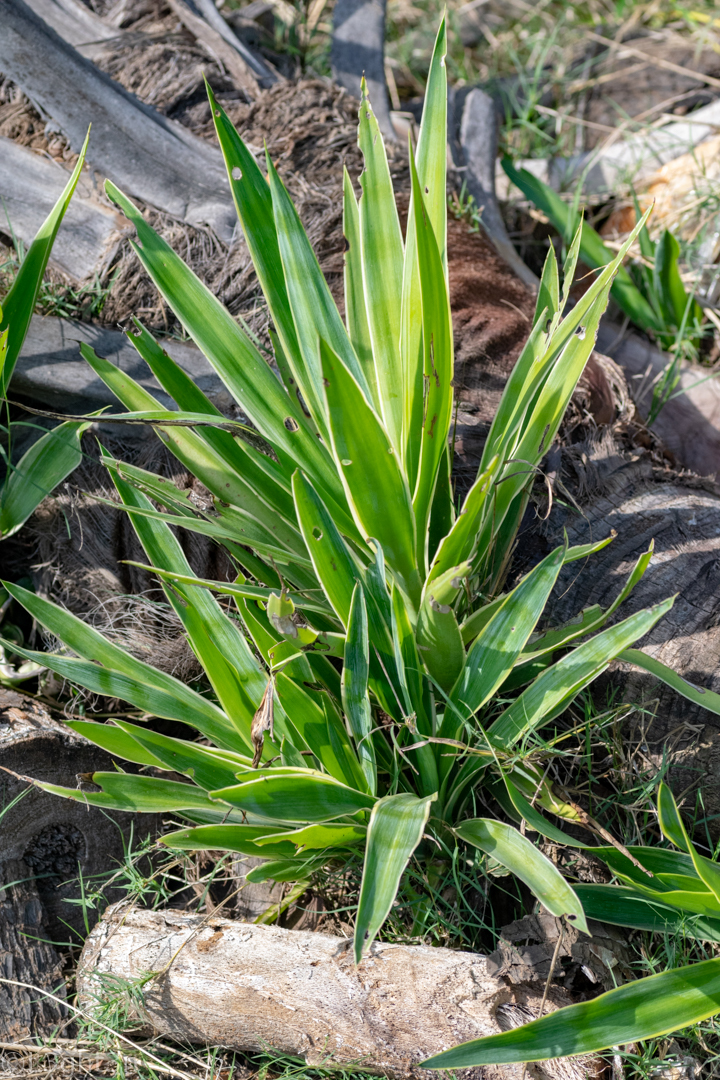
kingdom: Plantae
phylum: Tracheophyta
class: Liliopsida
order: Asparagales
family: Asparagaceae
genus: Yucca
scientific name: Yucca gigantea
